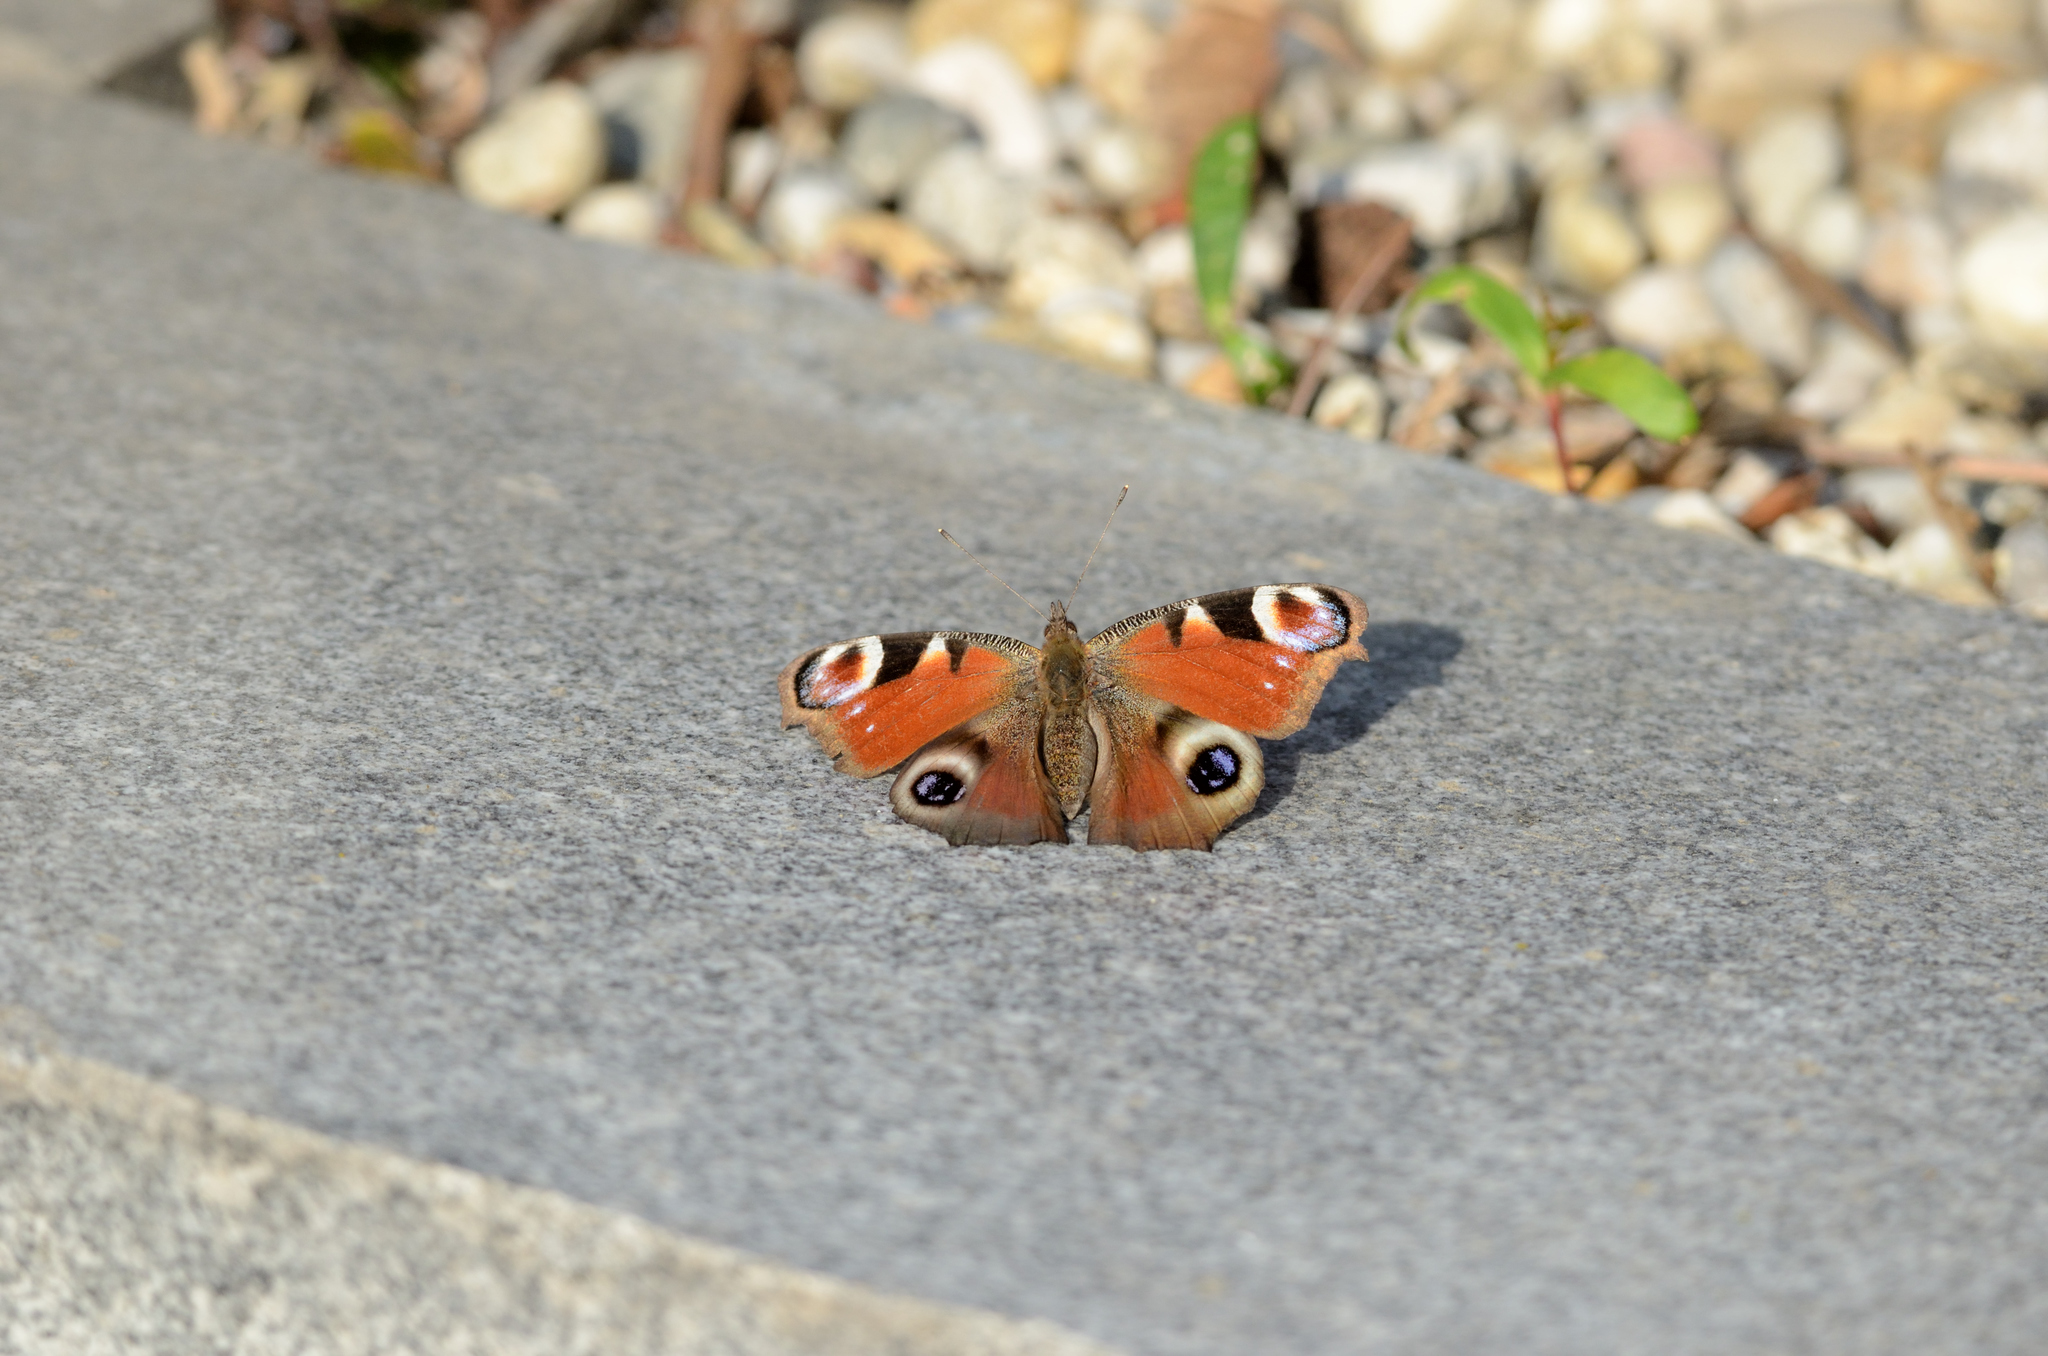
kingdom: Animalia
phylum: Arthropoda
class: Insecta
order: Lepidoptera
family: Nymphalidae
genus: Aglais
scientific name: Aglais io
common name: Peacock
